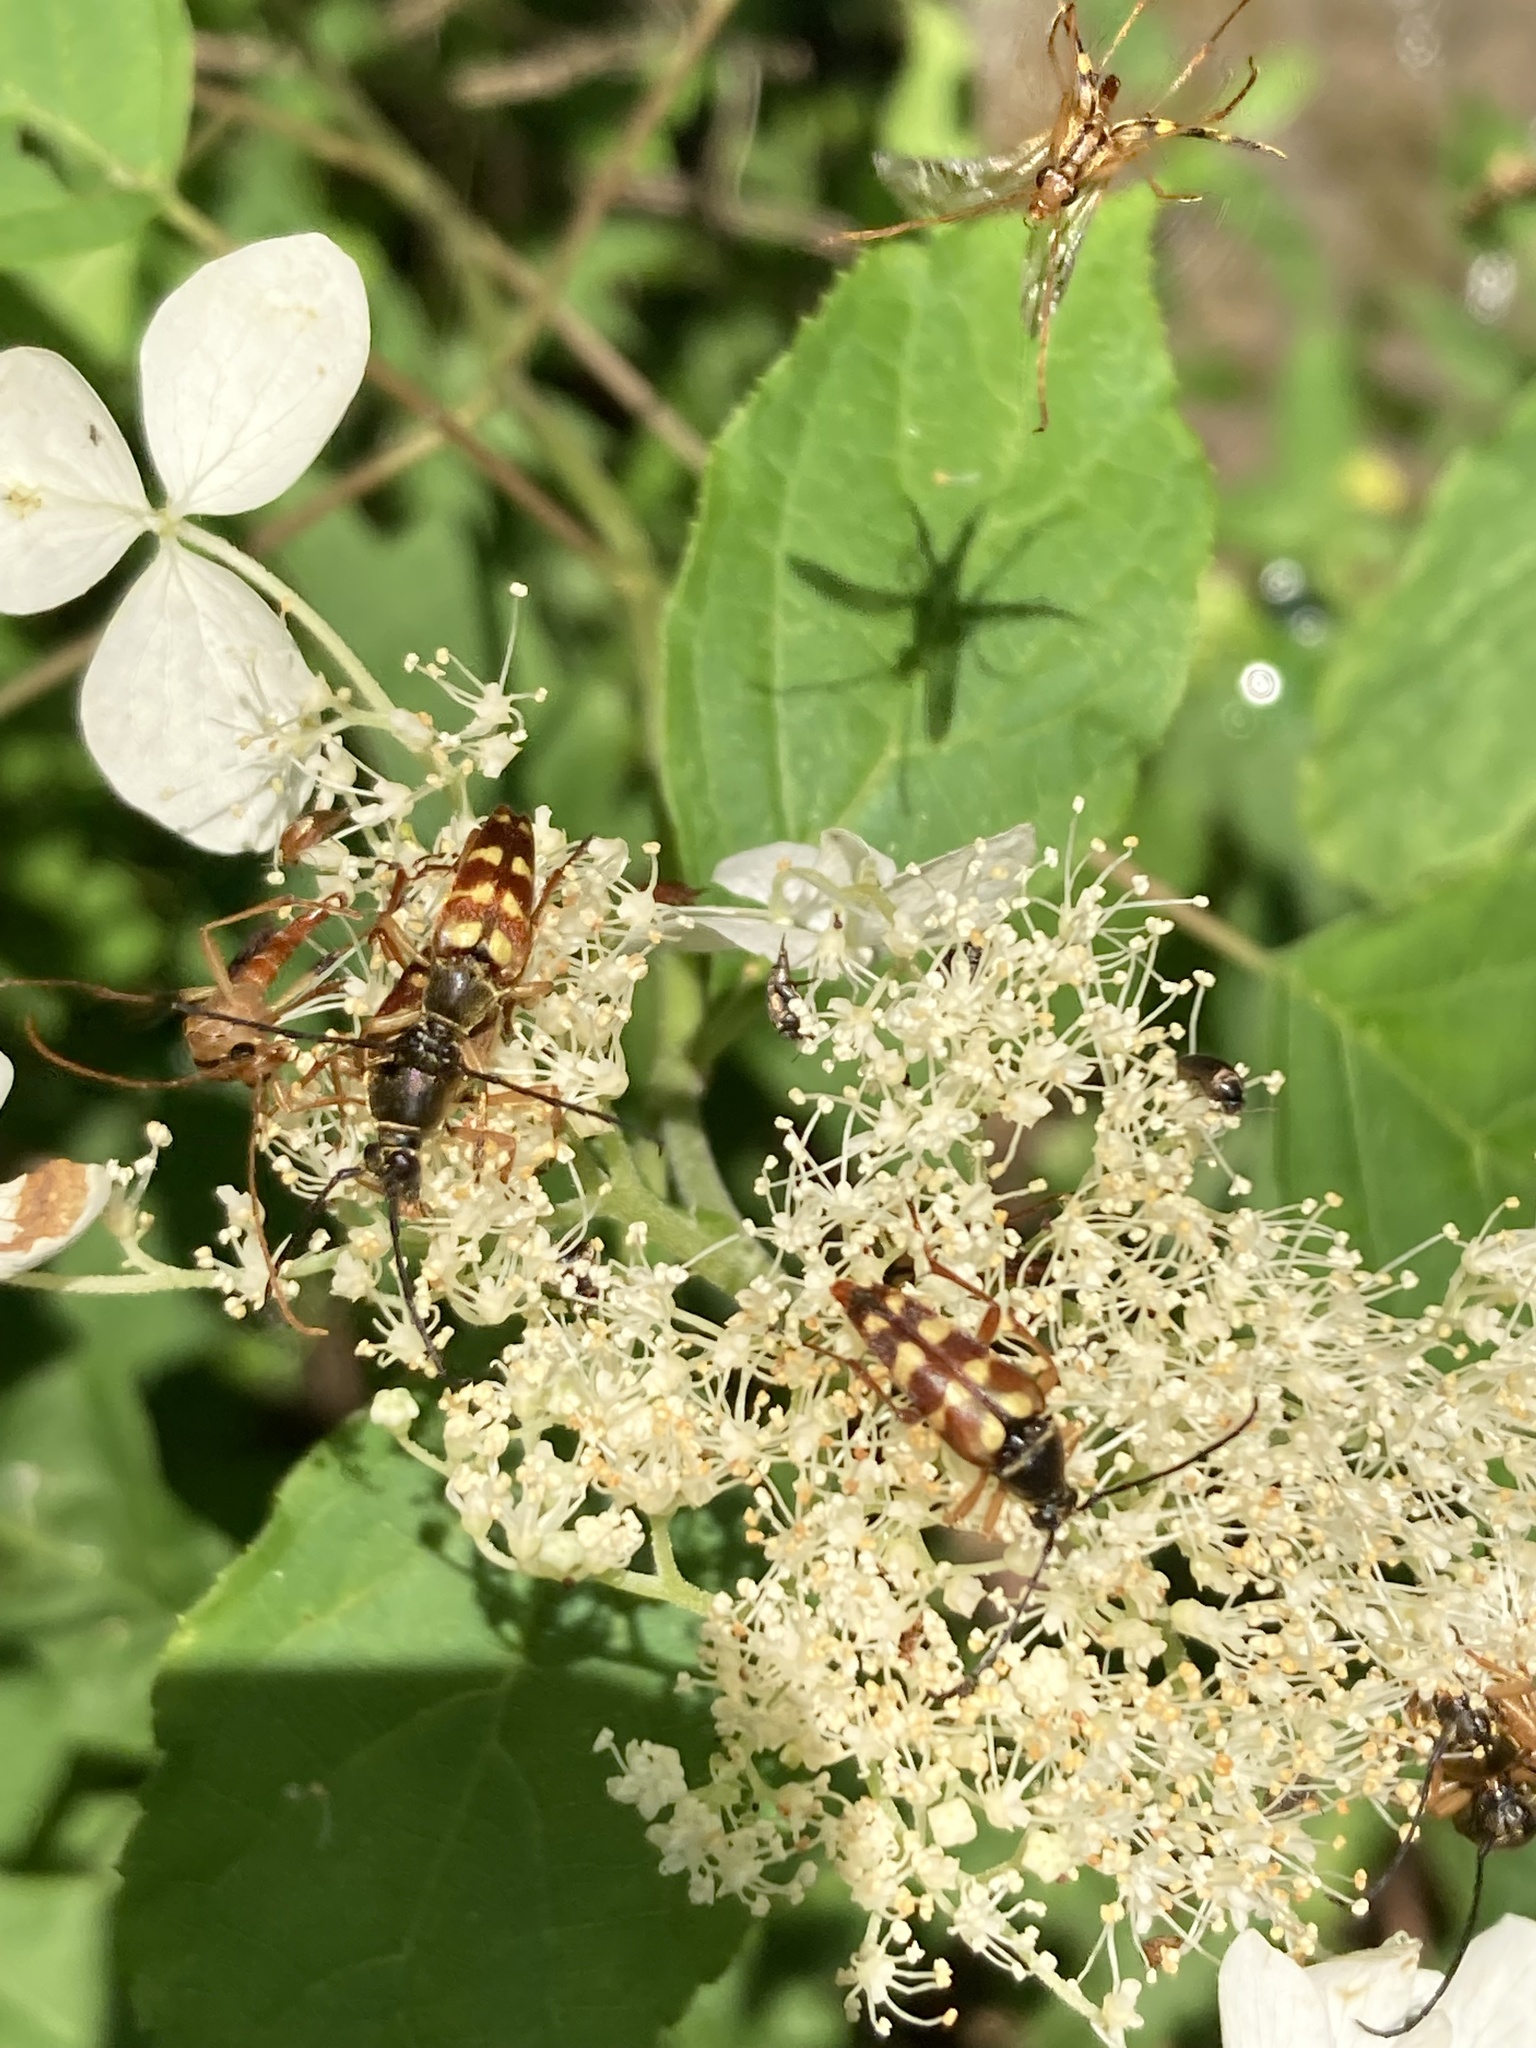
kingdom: Animalia
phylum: Arthropoda
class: Insecta
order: Coleoptera
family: Cerambycidae
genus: Typocerus
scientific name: Typocerus velutinus
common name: Banded longhorn beetle
